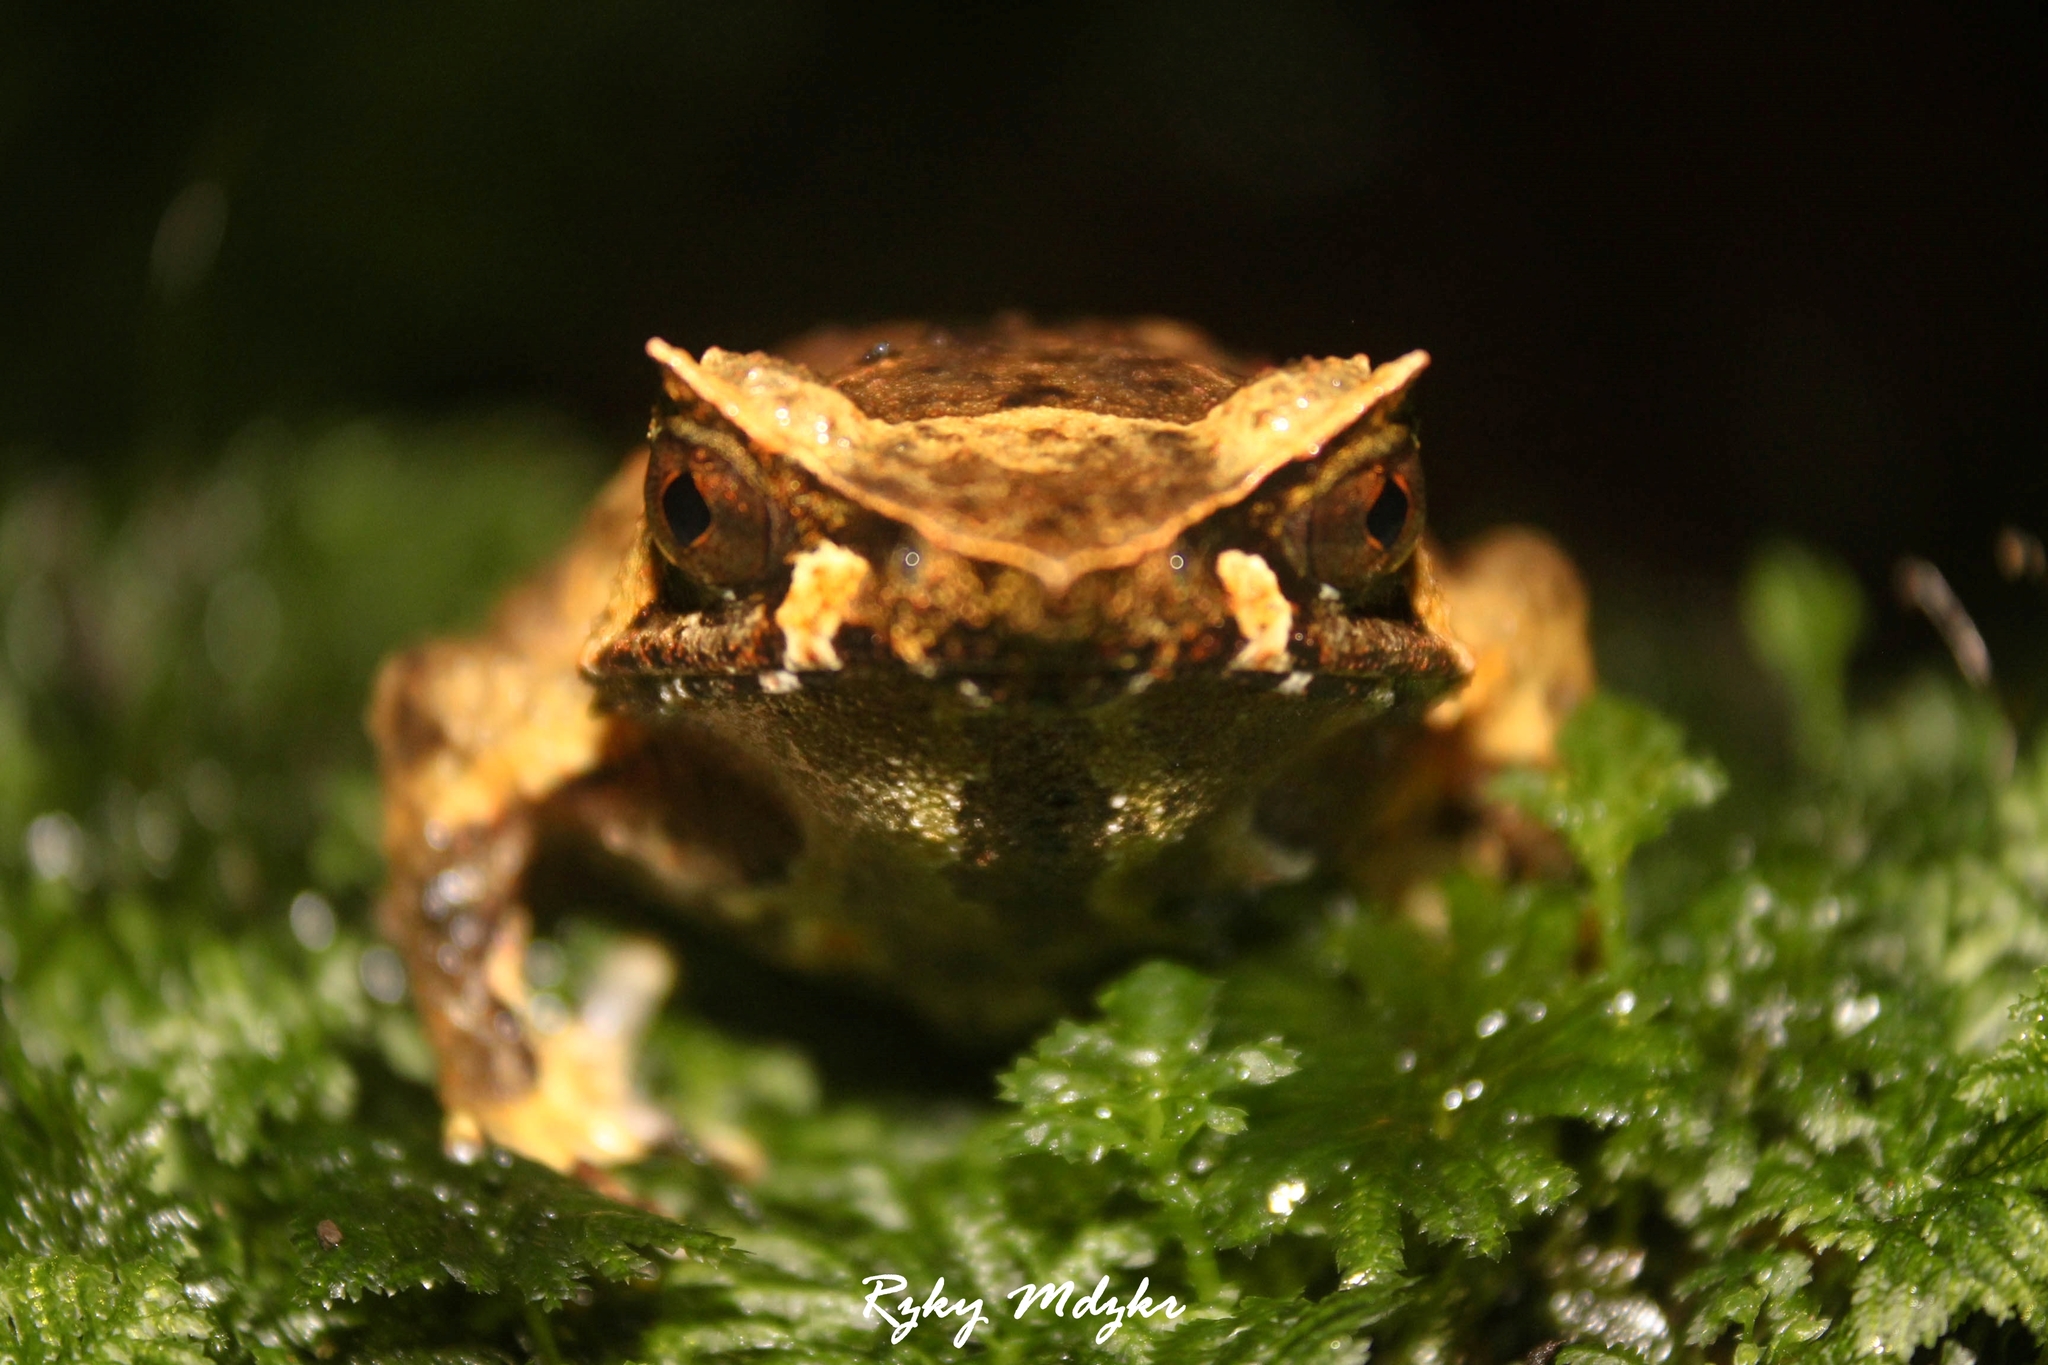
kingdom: Animalia
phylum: Chordata
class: Amphibia
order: Anura
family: Megophryidae
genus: Megophrys
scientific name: Megophrys montana
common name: Asian spadefoot toad
